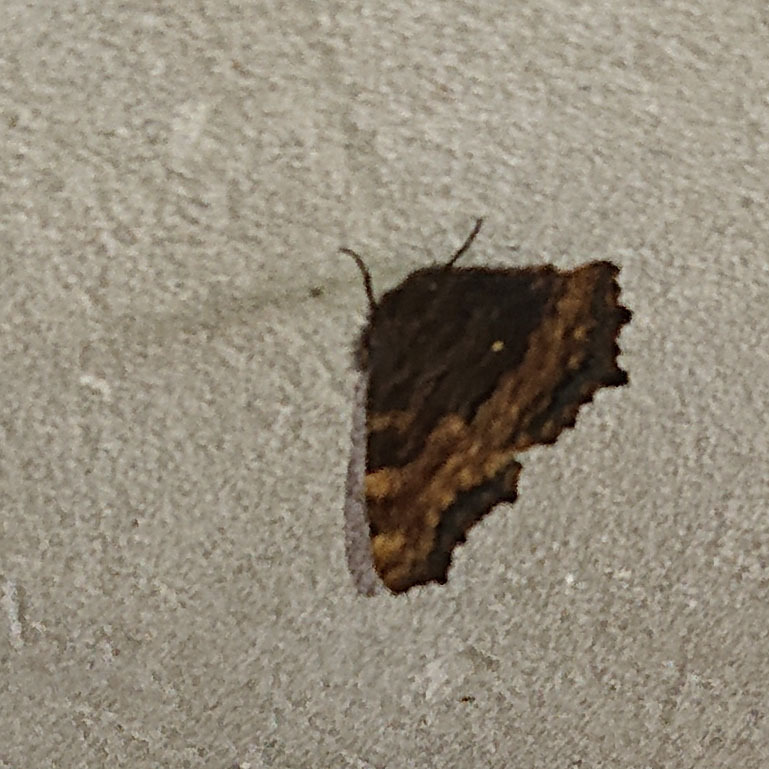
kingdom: Animalia
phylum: Arthropoda
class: Insecta
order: Lepidoptera
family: Nymphalidae
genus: Nymphalis
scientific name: Nymphalis polychloros
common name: Large tortoiseshell
